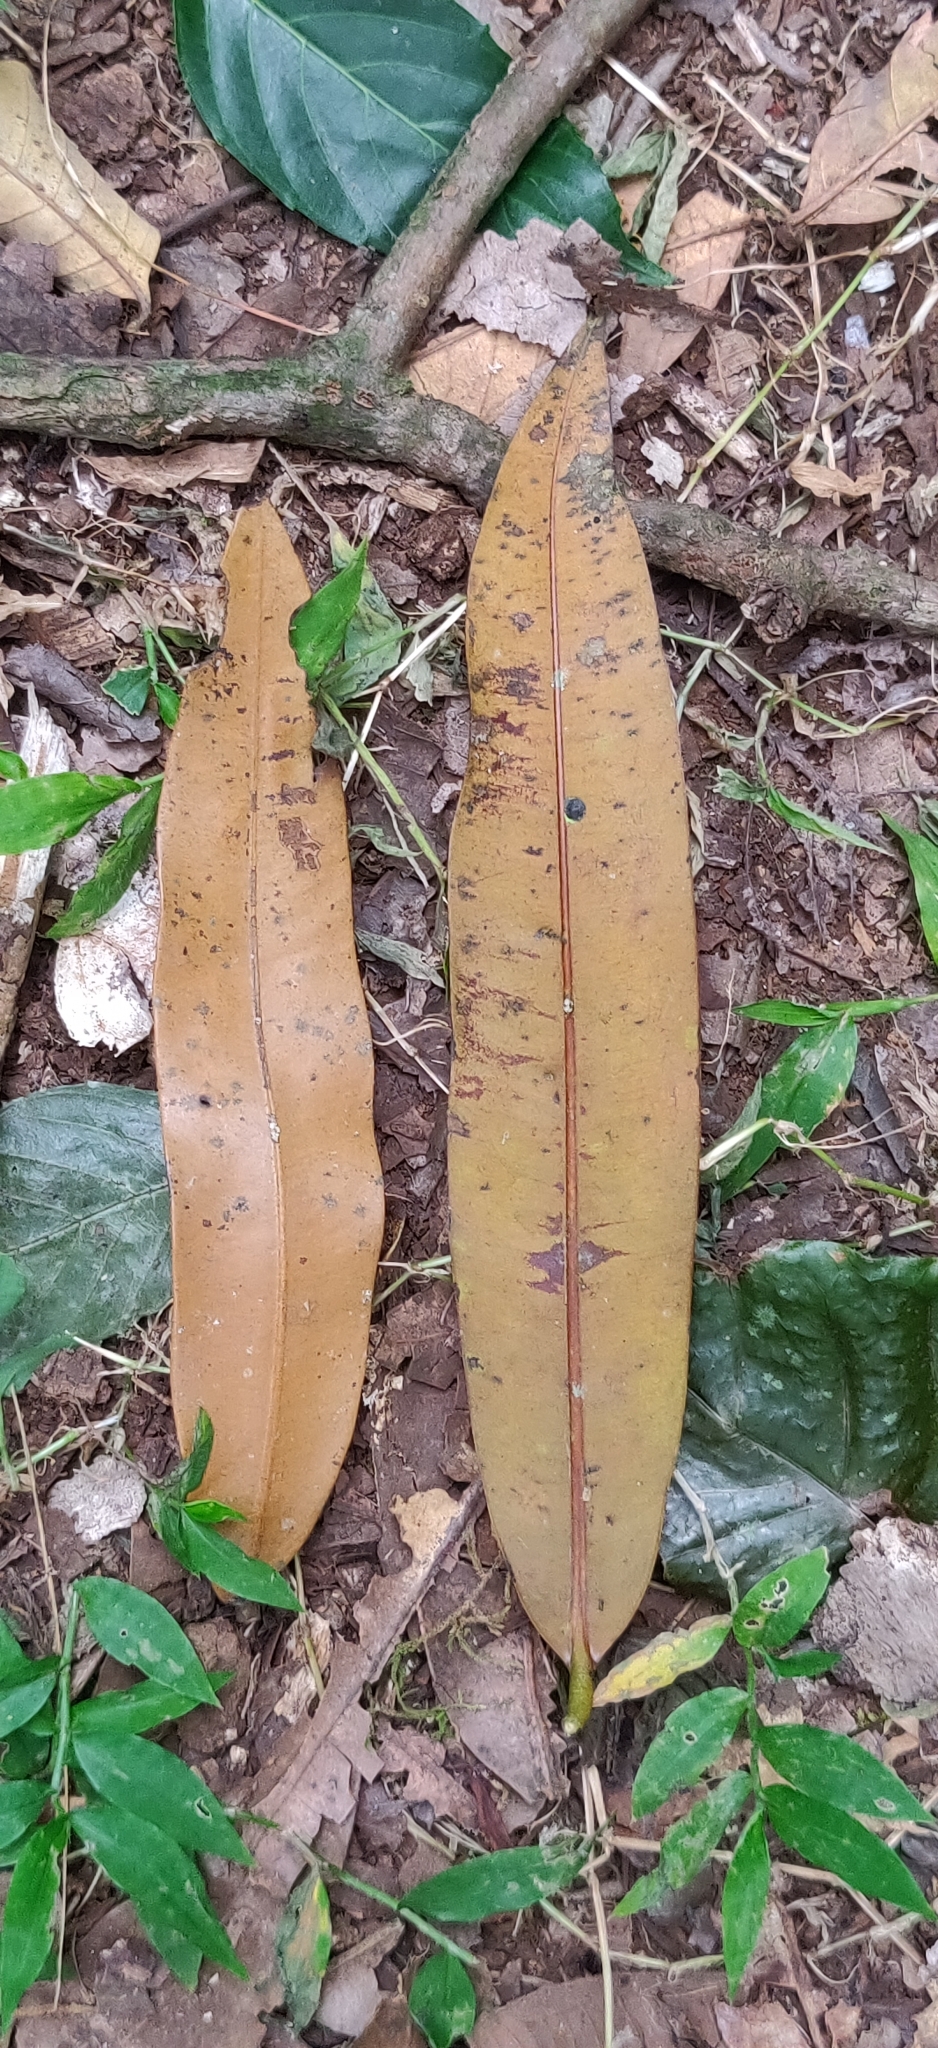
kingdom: Plantae
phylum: Tracheophyta
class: Magnoliopsida
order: Malpighiales
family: Calophyllaceae
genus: Mesua
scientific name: Mesua ferrea
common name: Mesua
